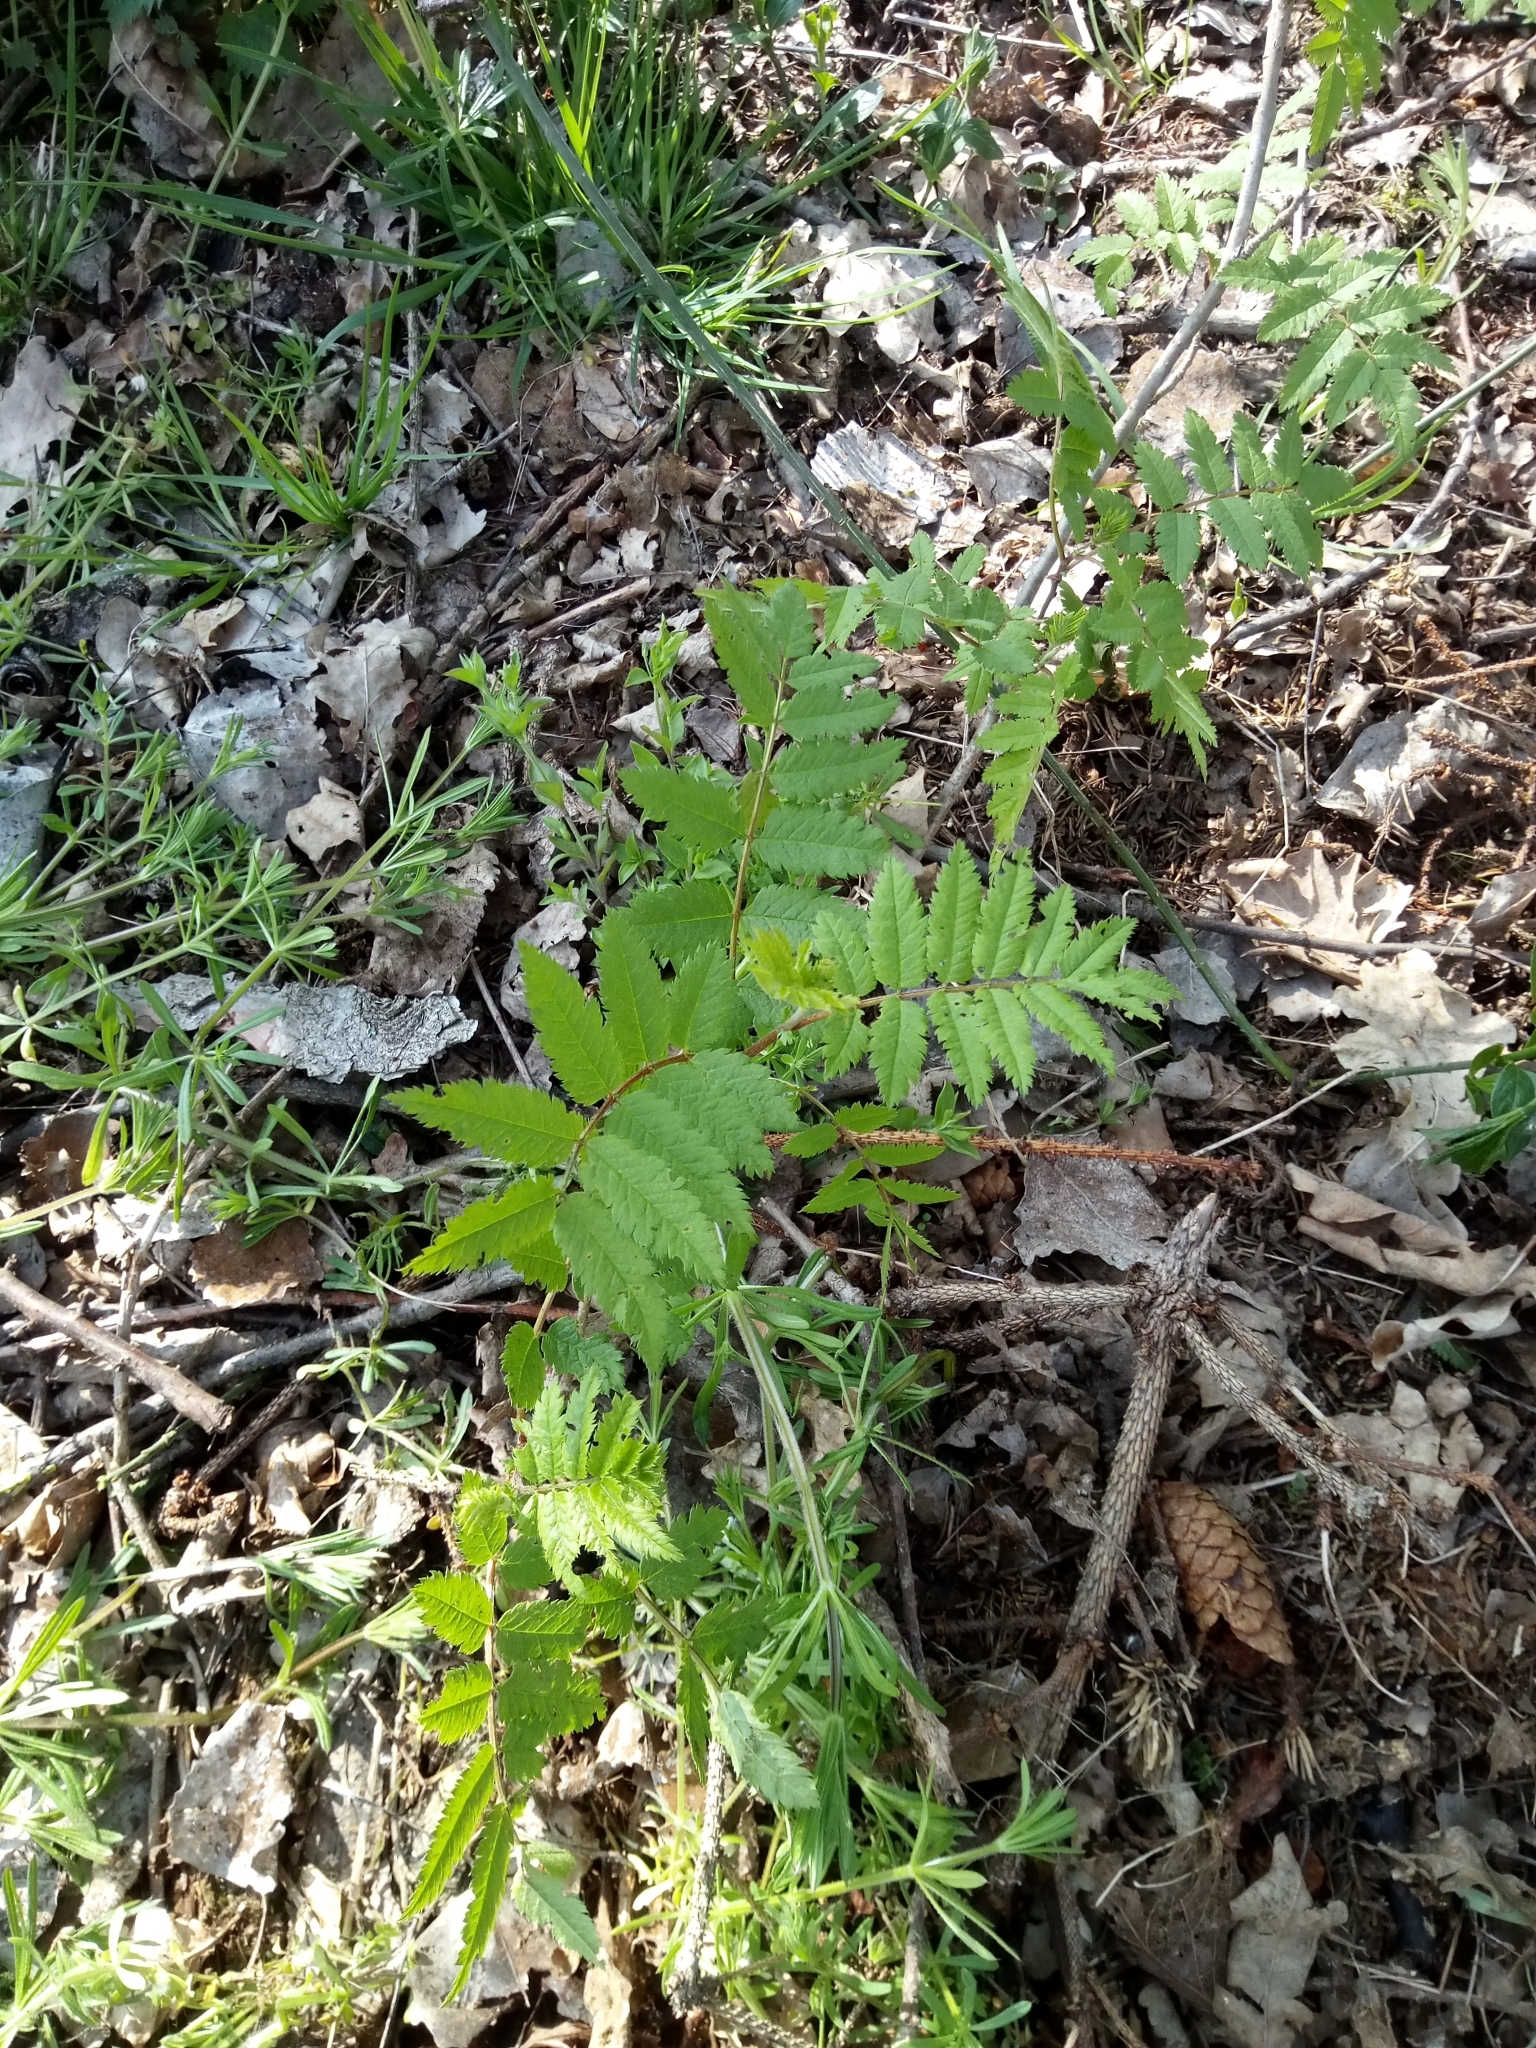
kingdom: Plantae
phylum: Tracheophyta
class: Magnoliopsida
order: Rosales
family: Rosaceae
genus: Sorbus
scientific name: Sorbus aucuparia
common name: Rowan
